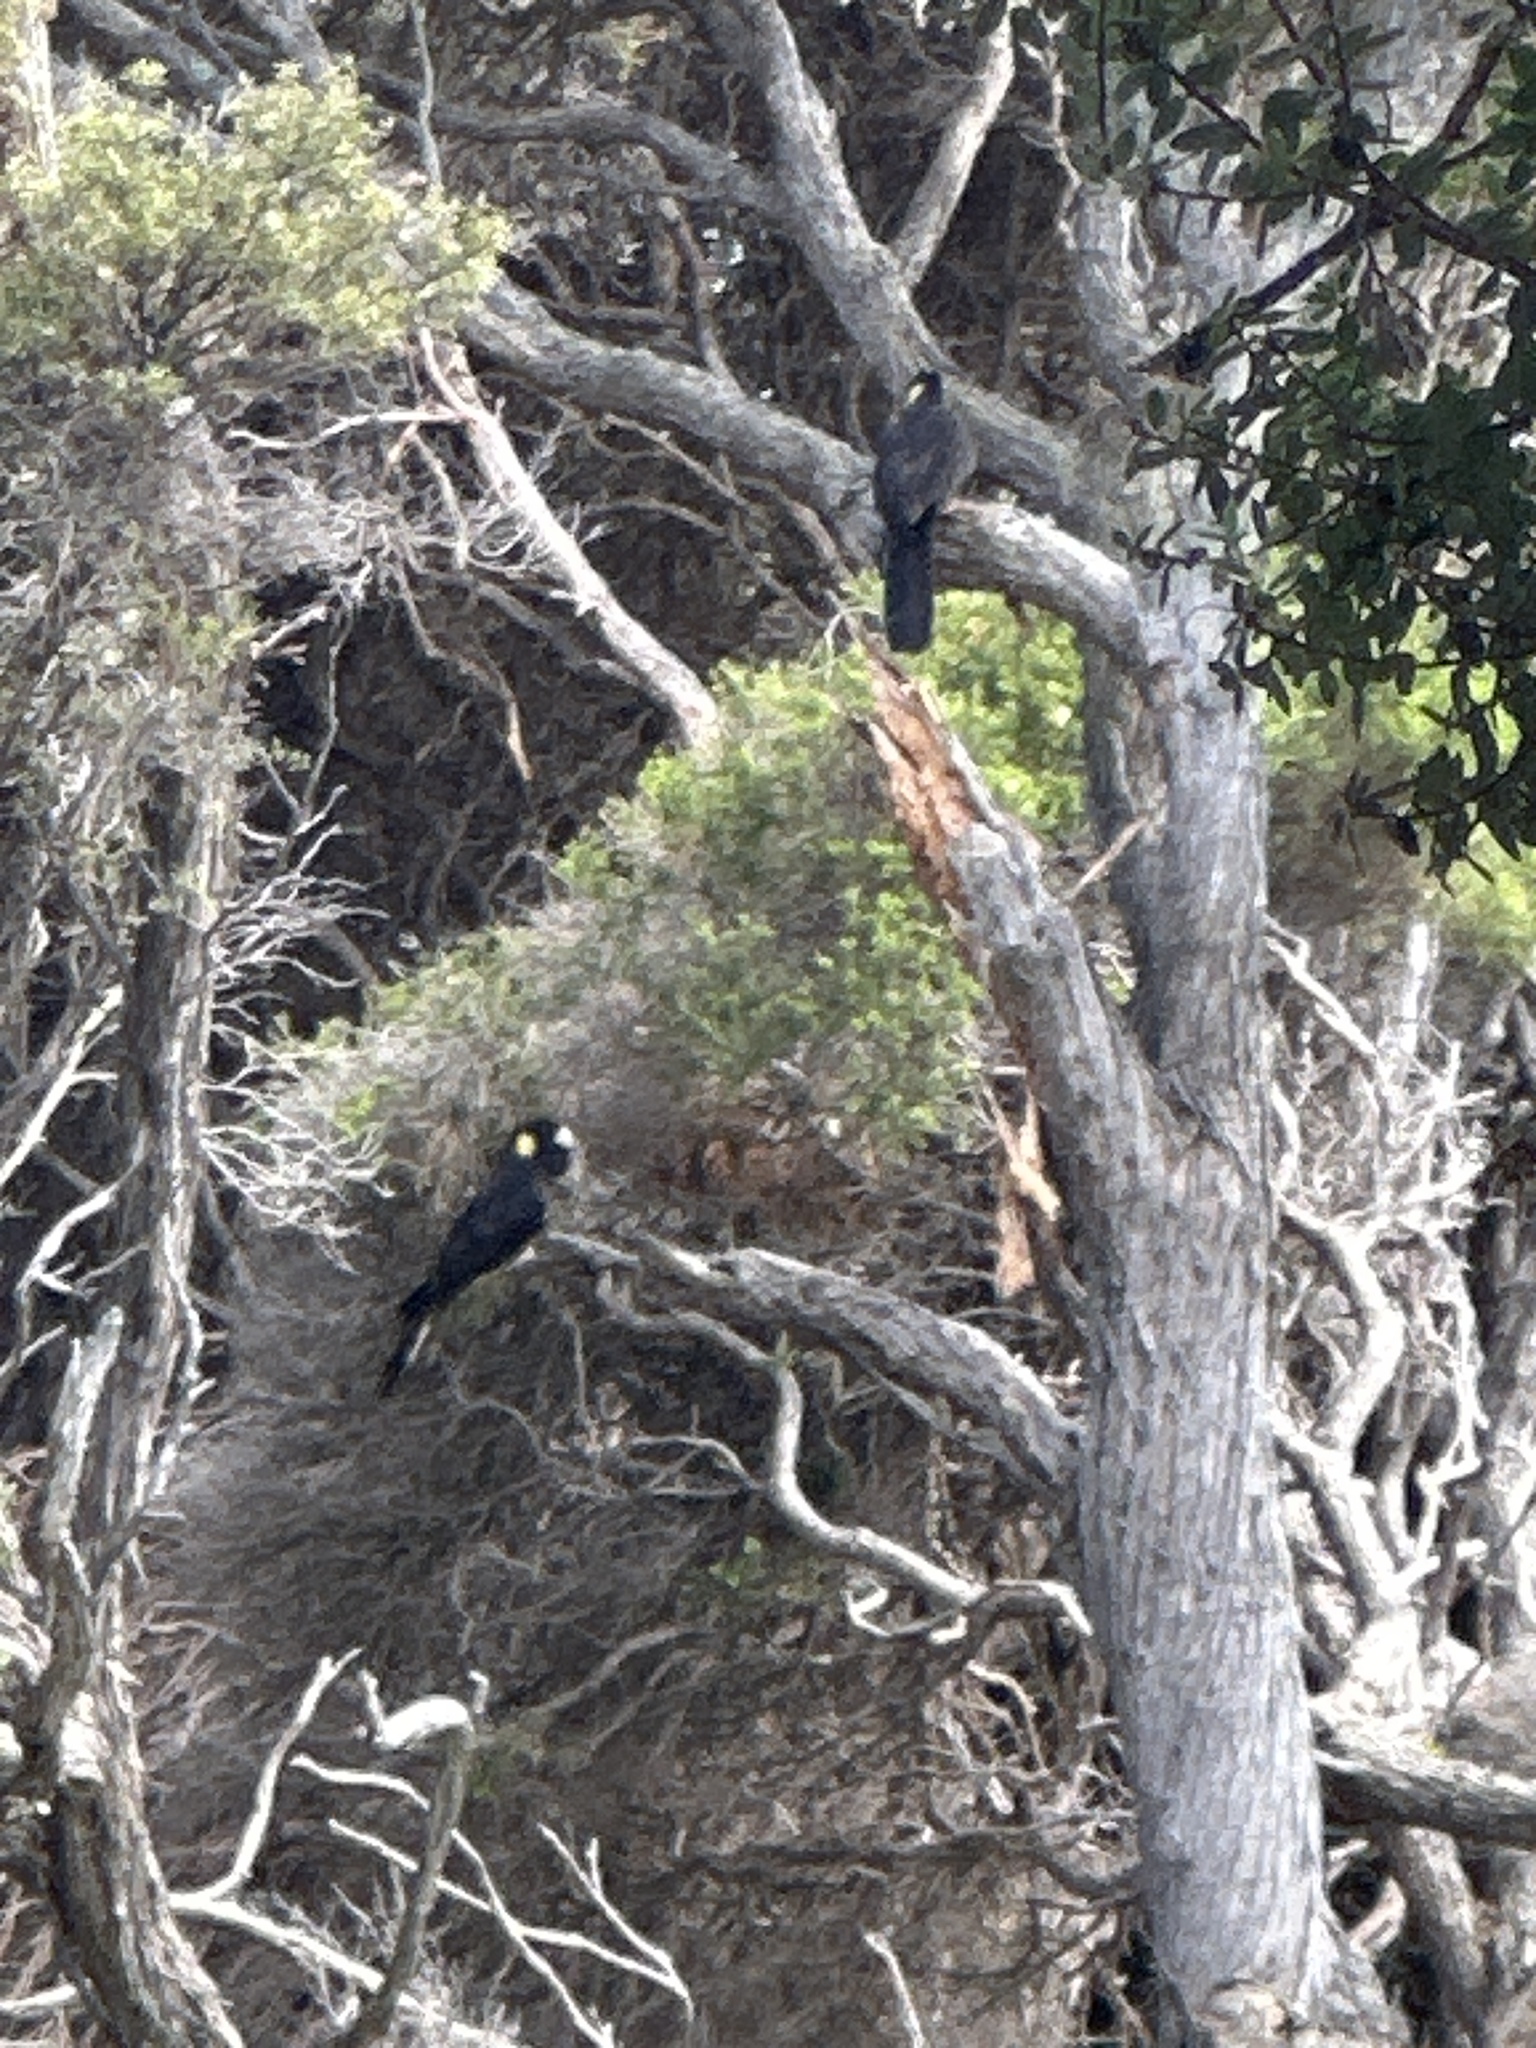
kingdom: Animalia
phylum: Chordata
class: Aves
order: Psittaciformes
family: Cacatuidae
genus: Zanda
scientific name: Zanda funerea
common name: Yellow-tailed black-cockatoo
